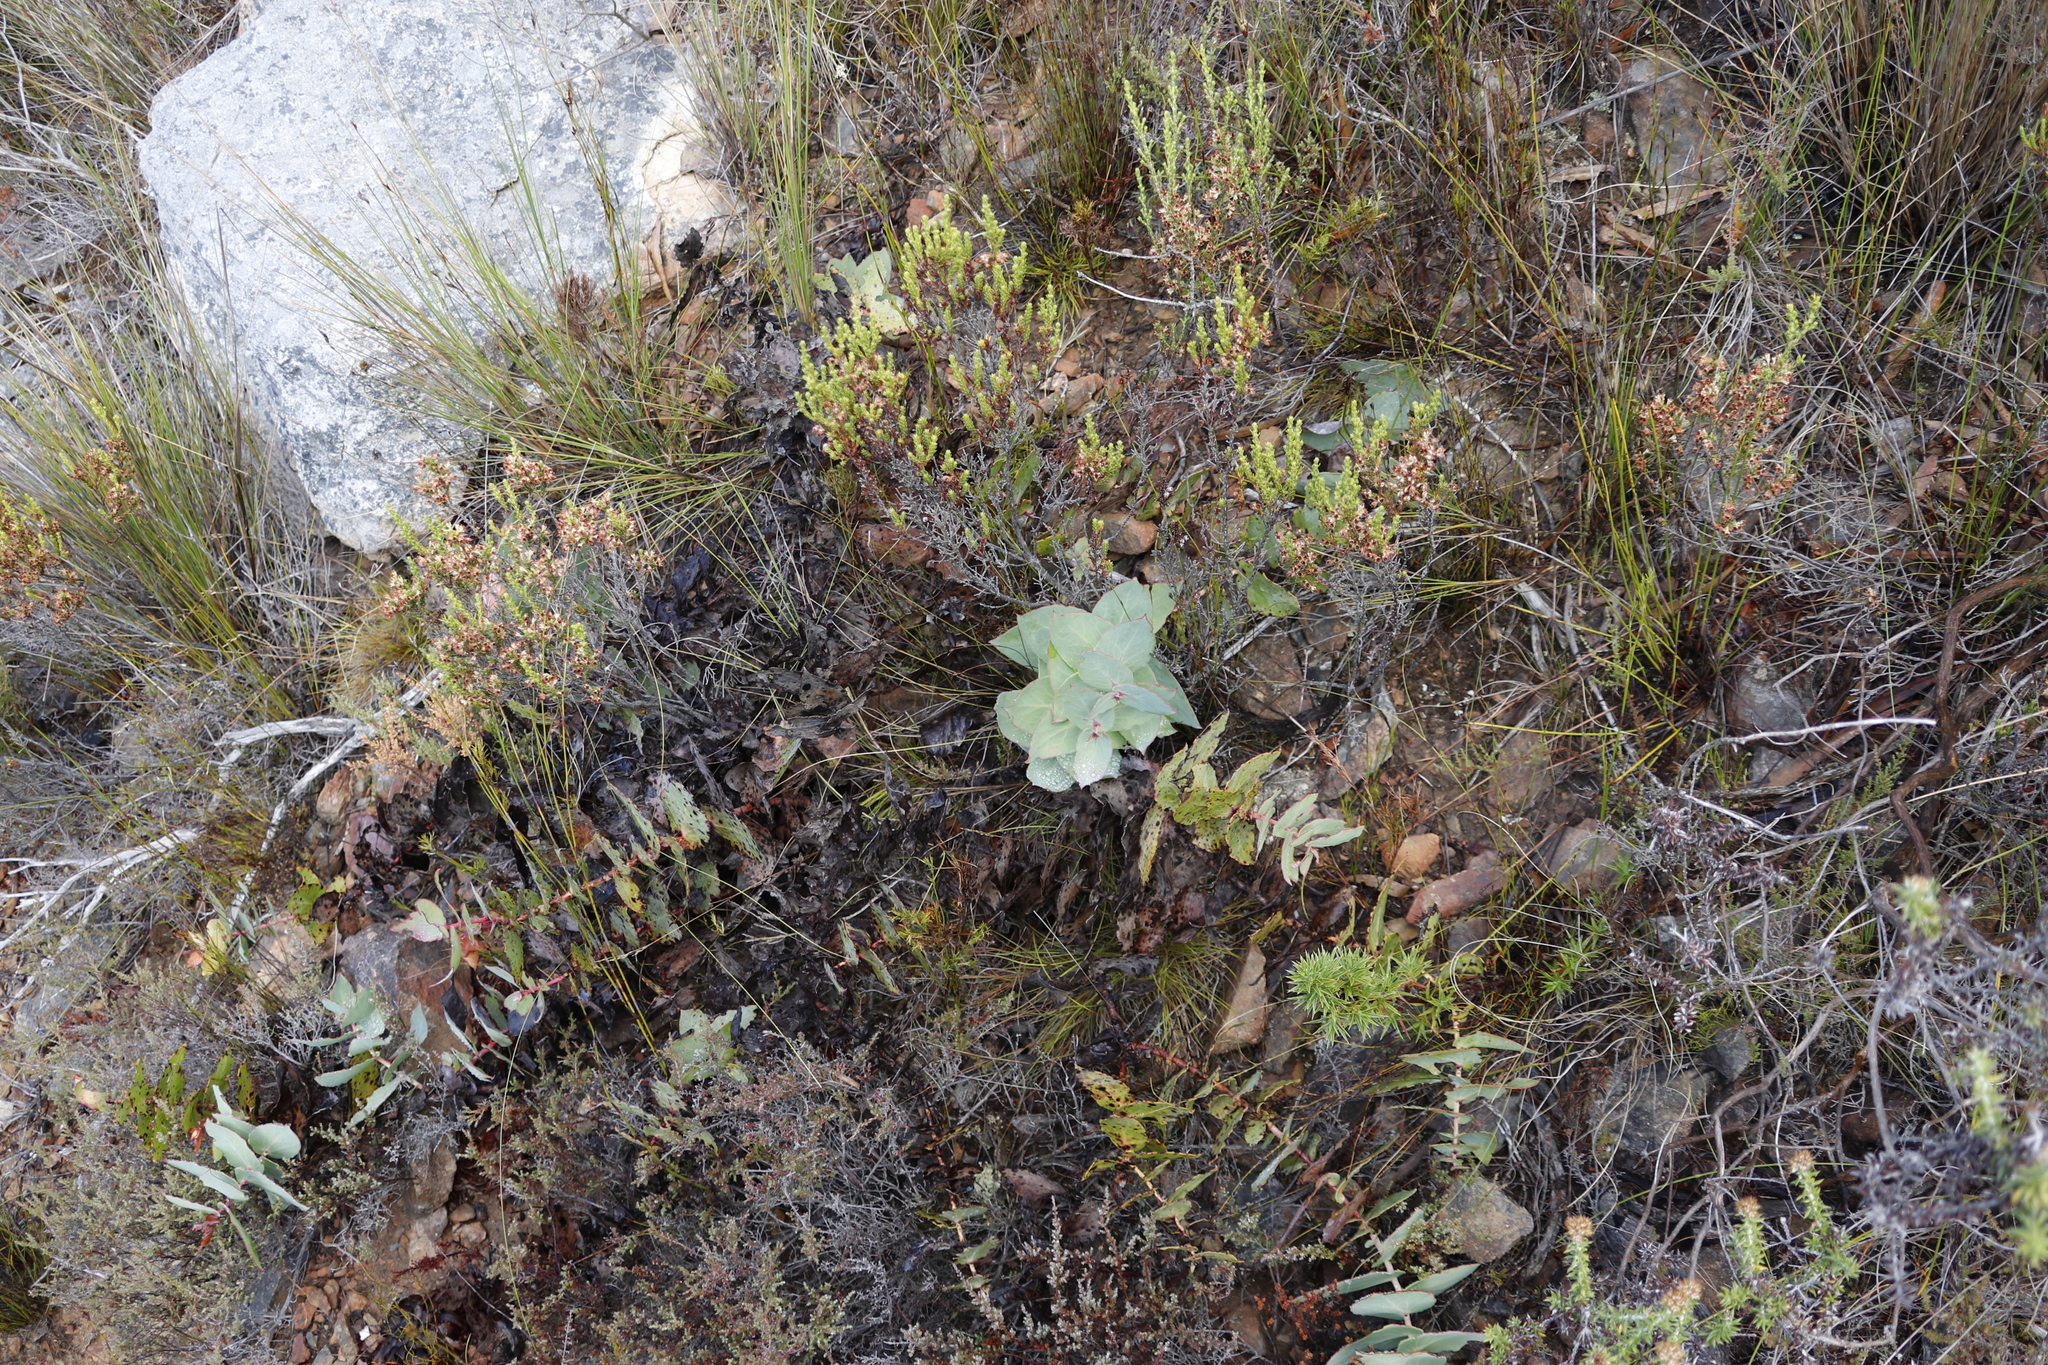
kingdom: Plantae
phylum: Tracheophyta
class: Magnoliopsida
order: Proteales
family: Proteaceae
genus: Protea
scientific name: Protea amplexicaulis
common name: Clasping-leaf sugarbush
